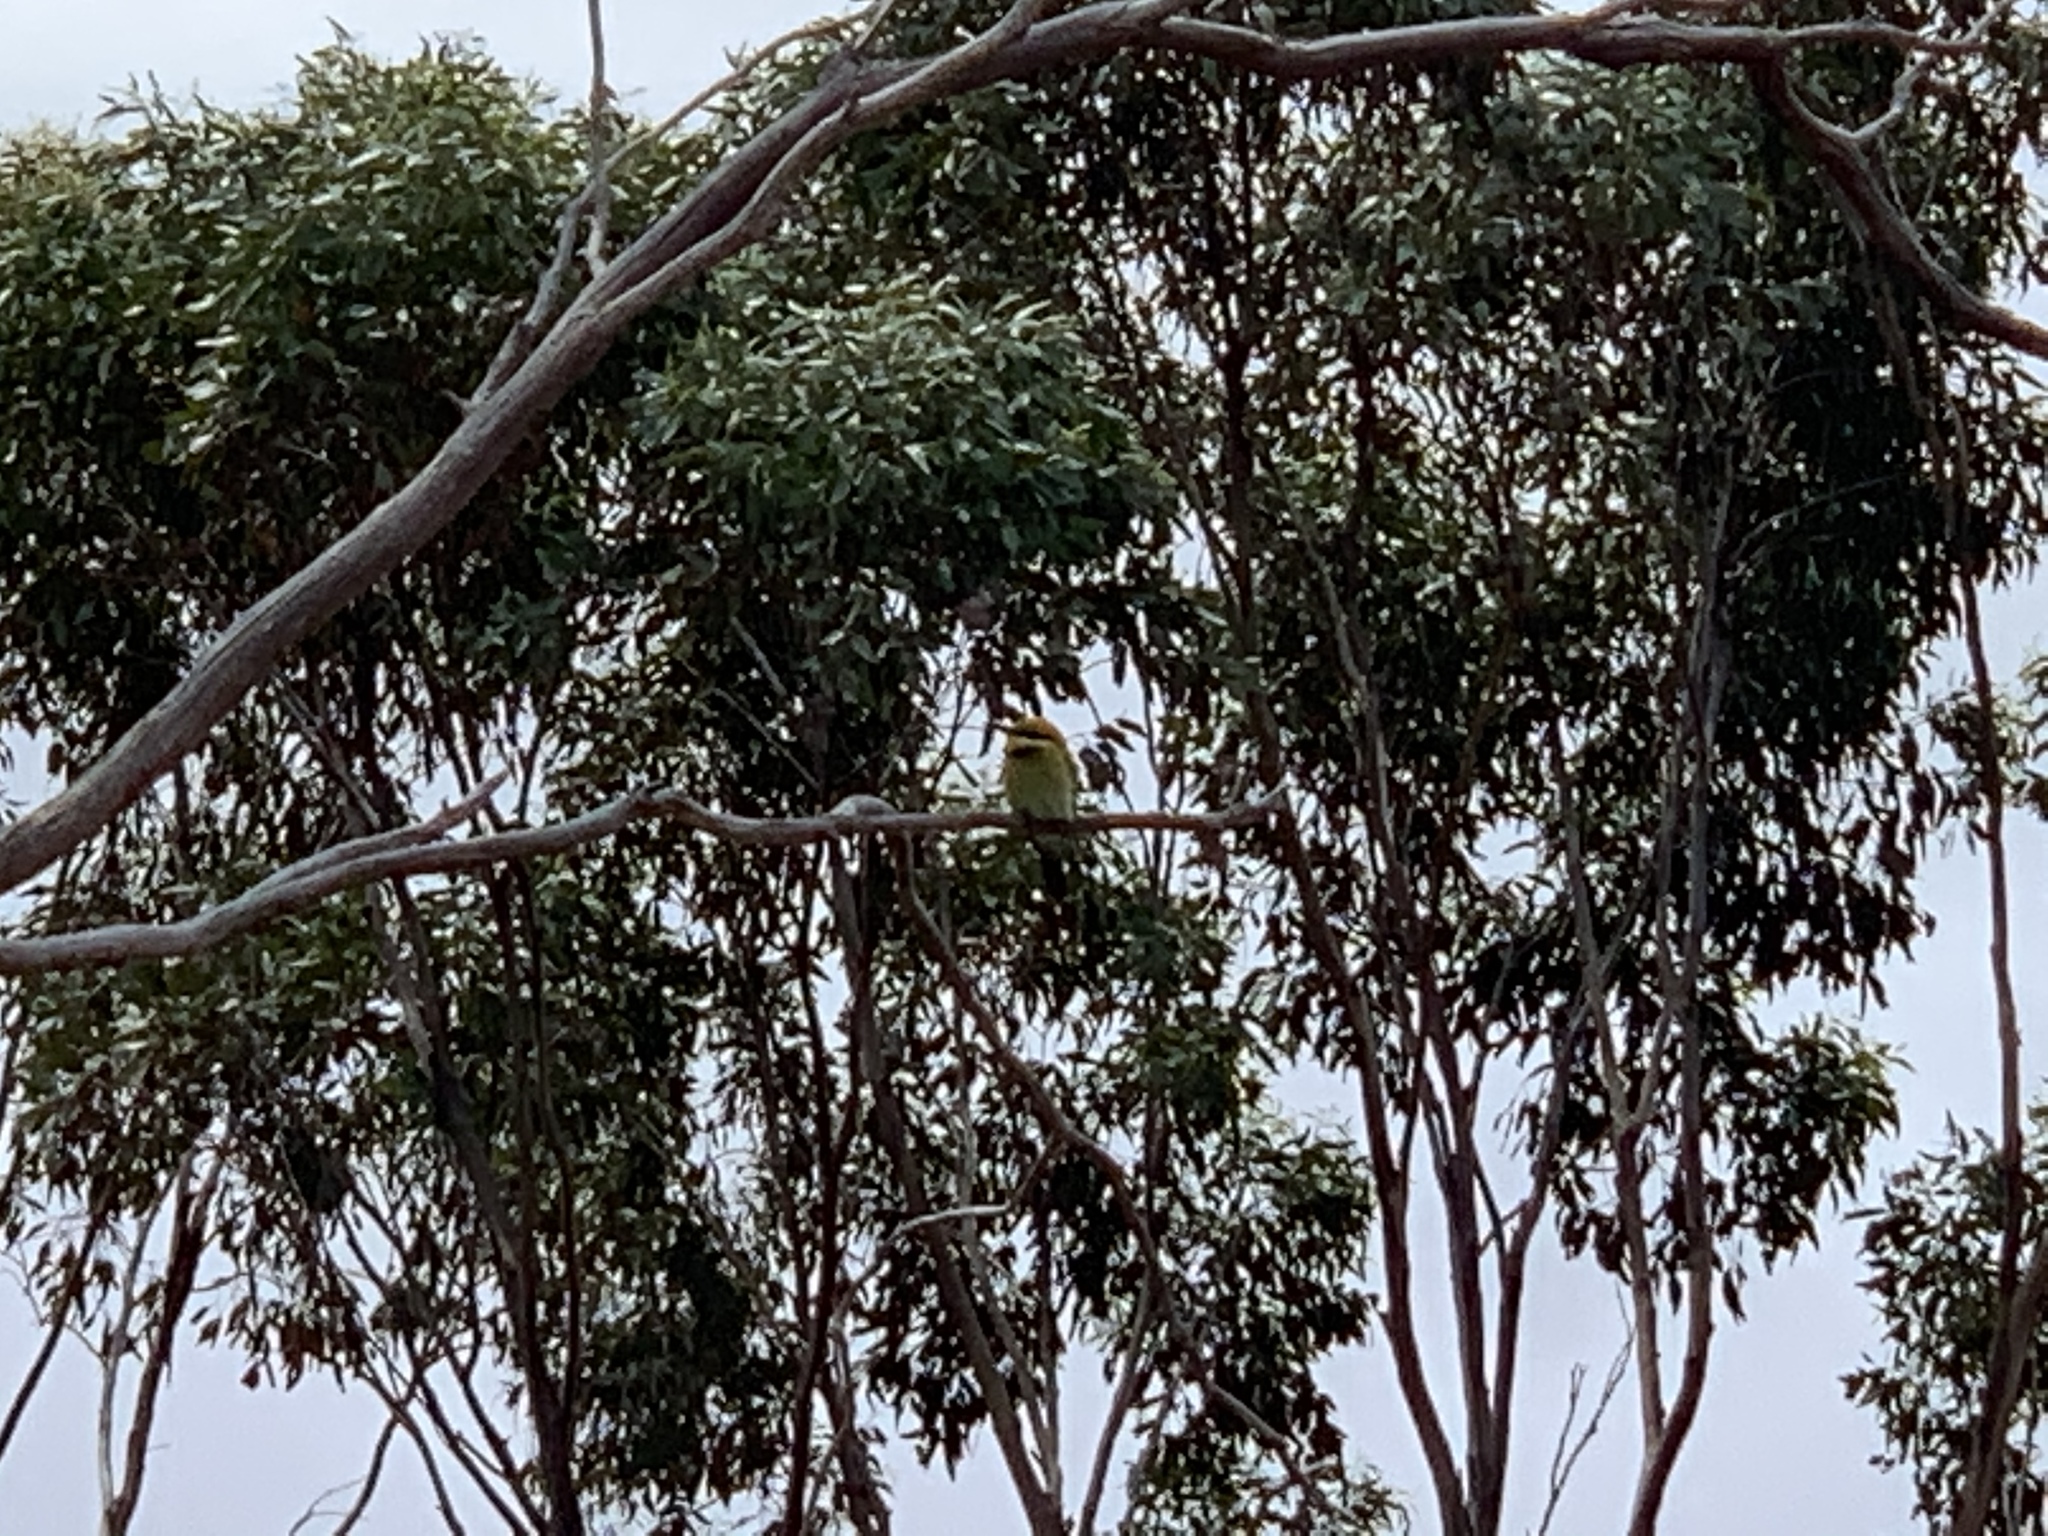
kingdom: Animalia
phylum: Chordata
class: Aves
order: Coraciiformes
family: Meropidae
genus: Merops
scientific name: Merops ornatus
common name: Rainbow bee-eater
